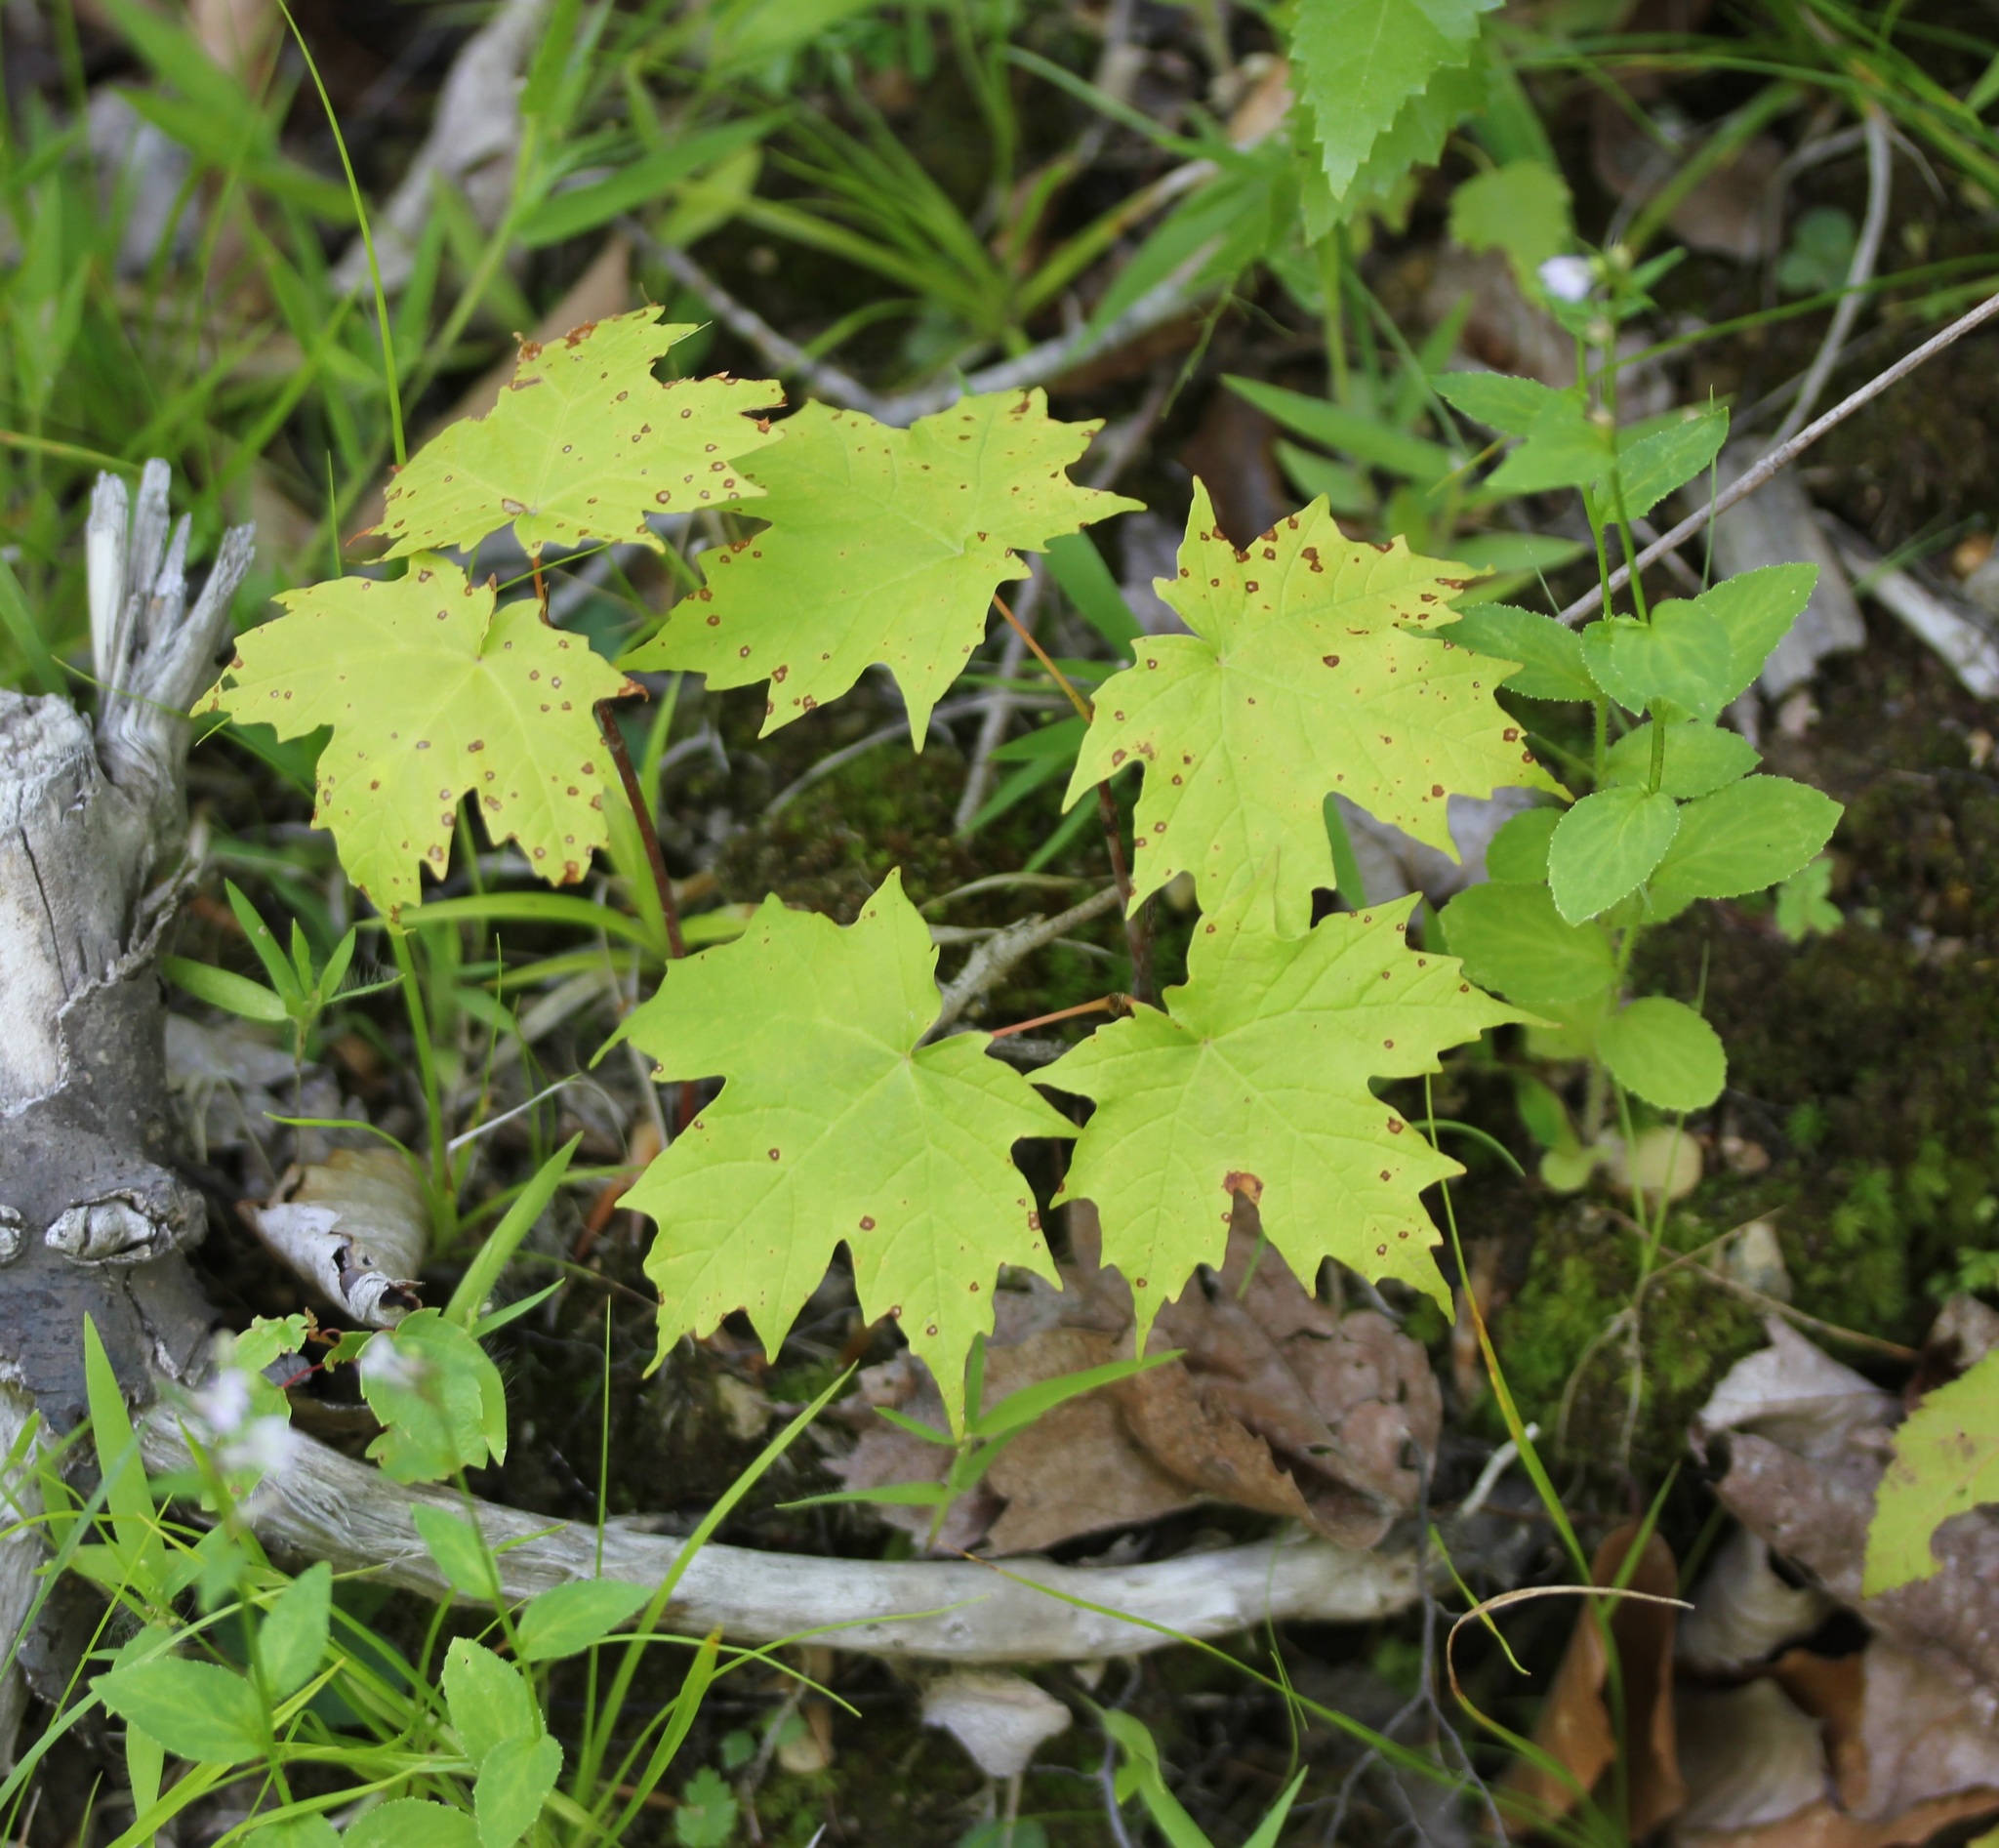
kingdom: Plantae
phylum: Tracheophyta
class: Magnoliopsida
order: Sapindales
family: Sapindaceae
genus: Acer
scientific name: Acer saccharum
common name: Sugar maple
